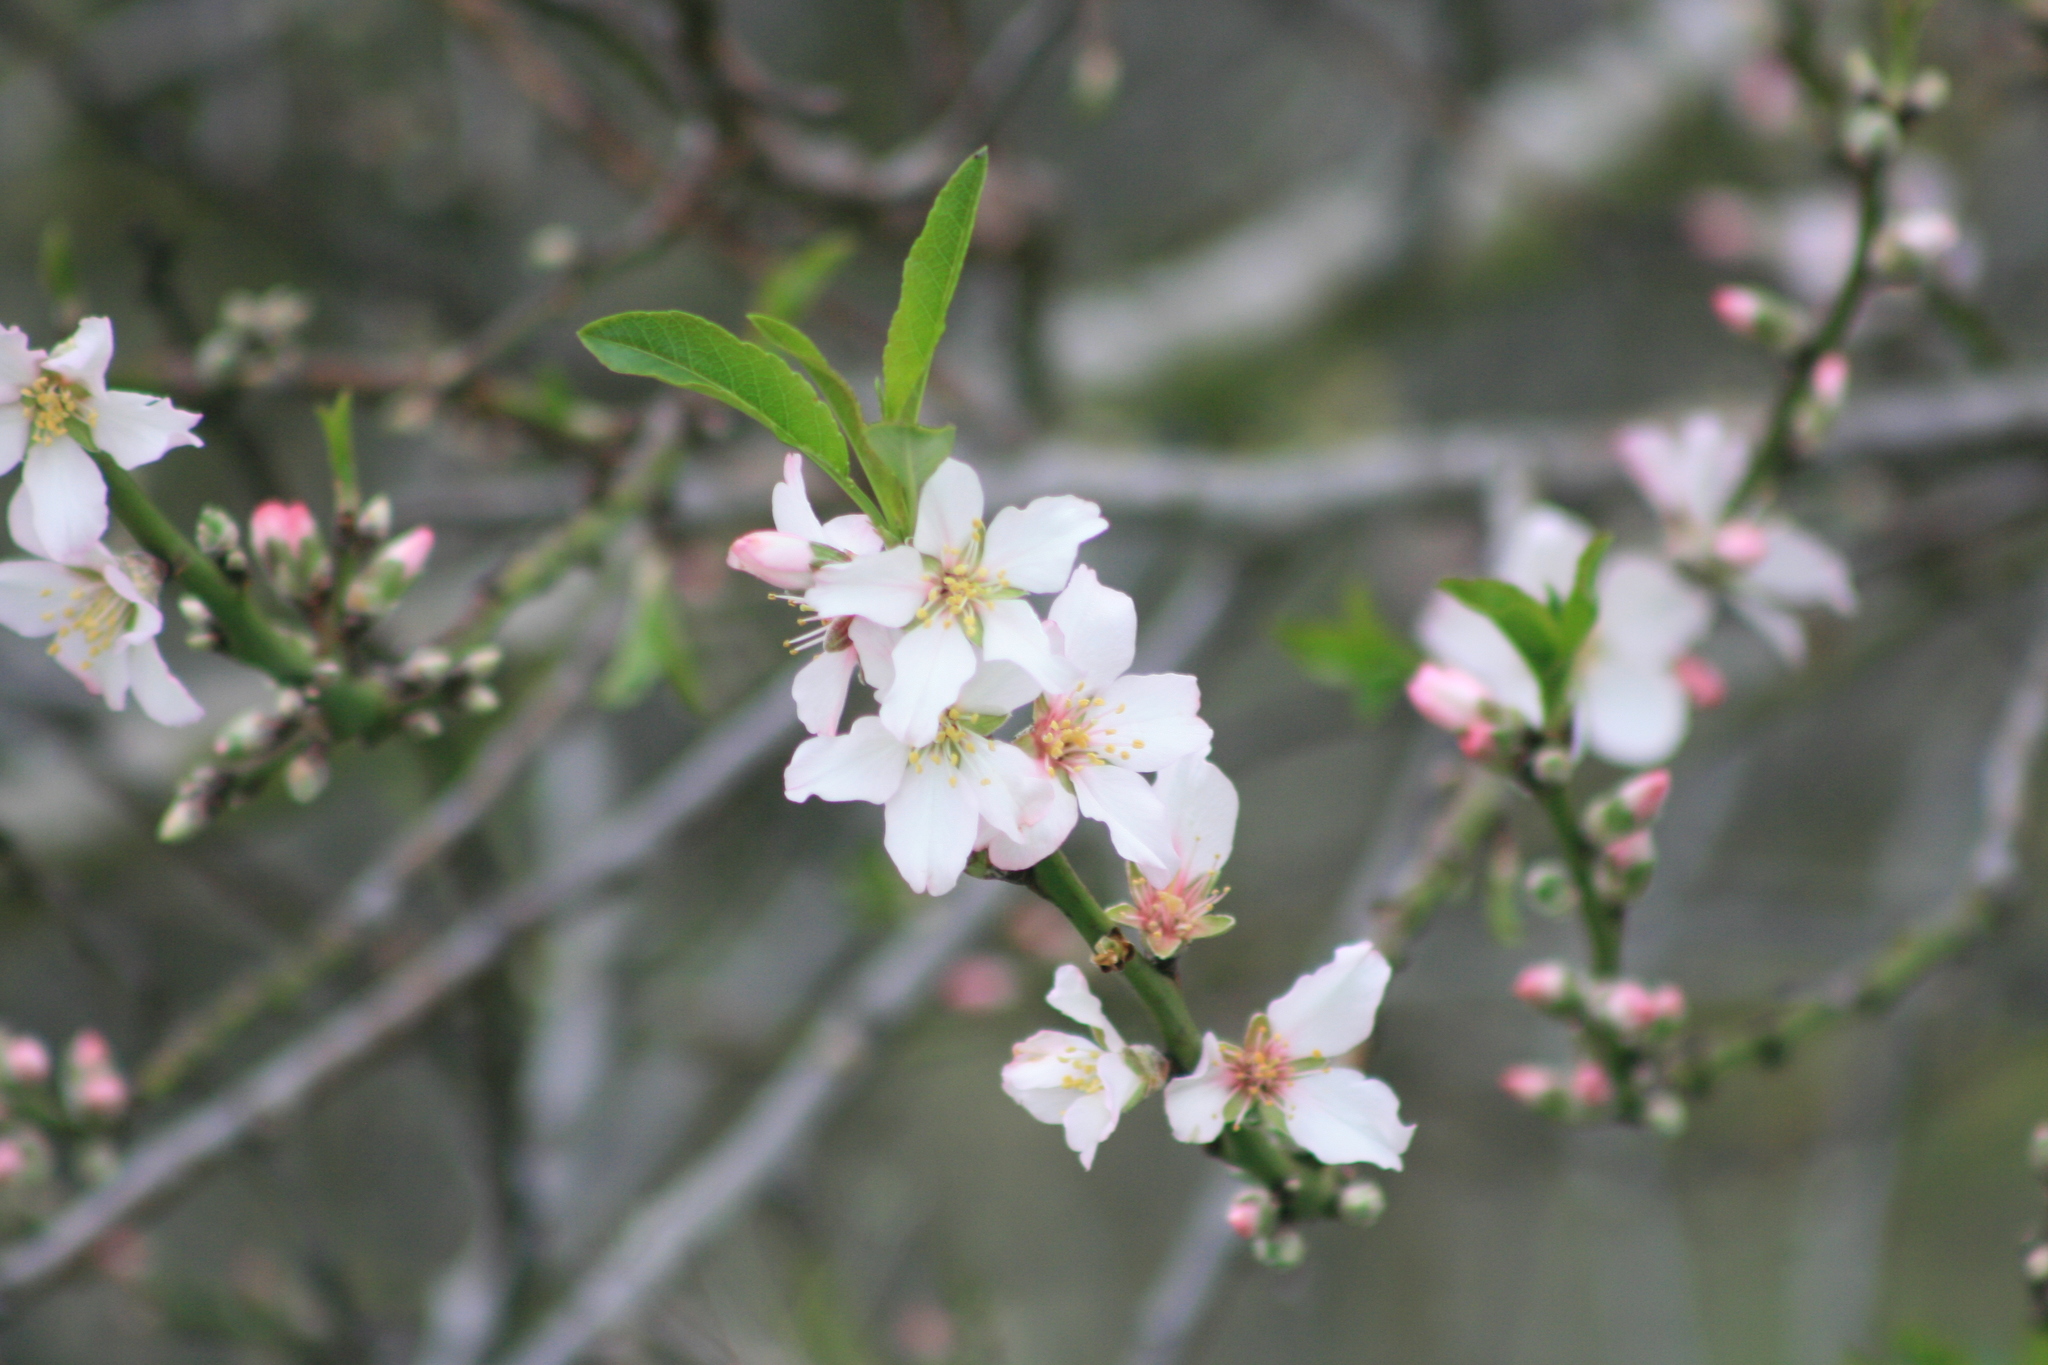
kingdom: Plantae
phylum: Tracheophyta
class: Magnoliopsida
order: Rosales
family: Rosaceae
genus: Prunus
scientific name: Prunus cerasifera
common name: Cherry plum
